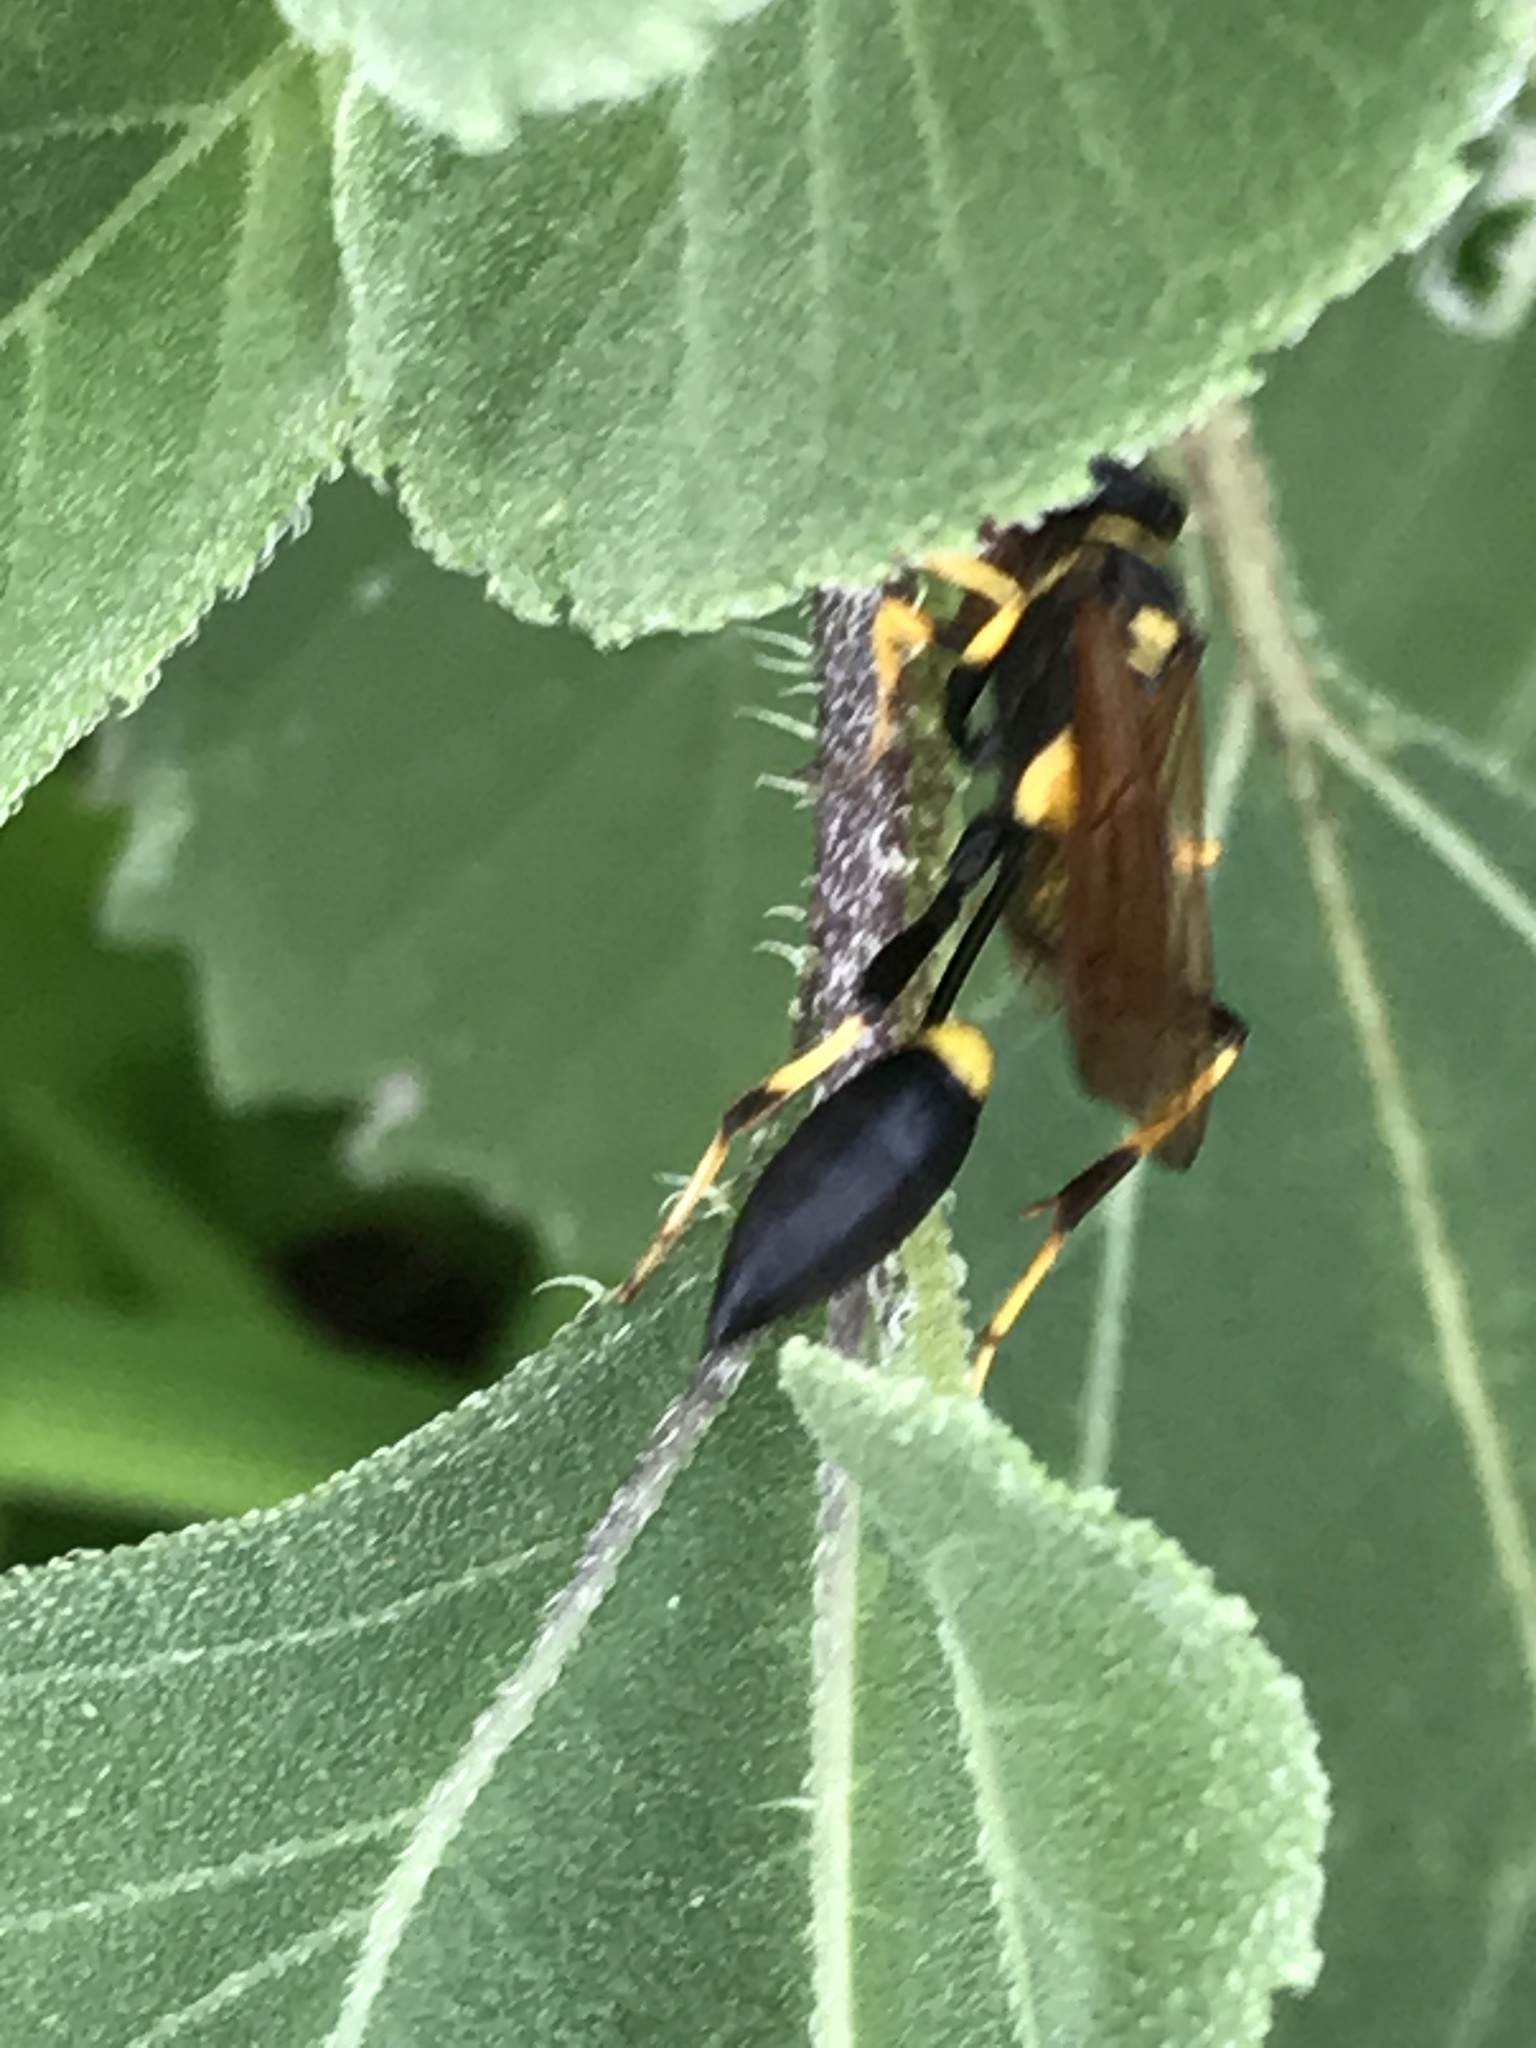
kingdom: Animalia
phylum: Arthropoda
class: Insecta
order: Hymenoptera
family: Sphecidae
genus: Sceliphron
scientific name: Sceliphron caementarium
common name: Mud dauber
